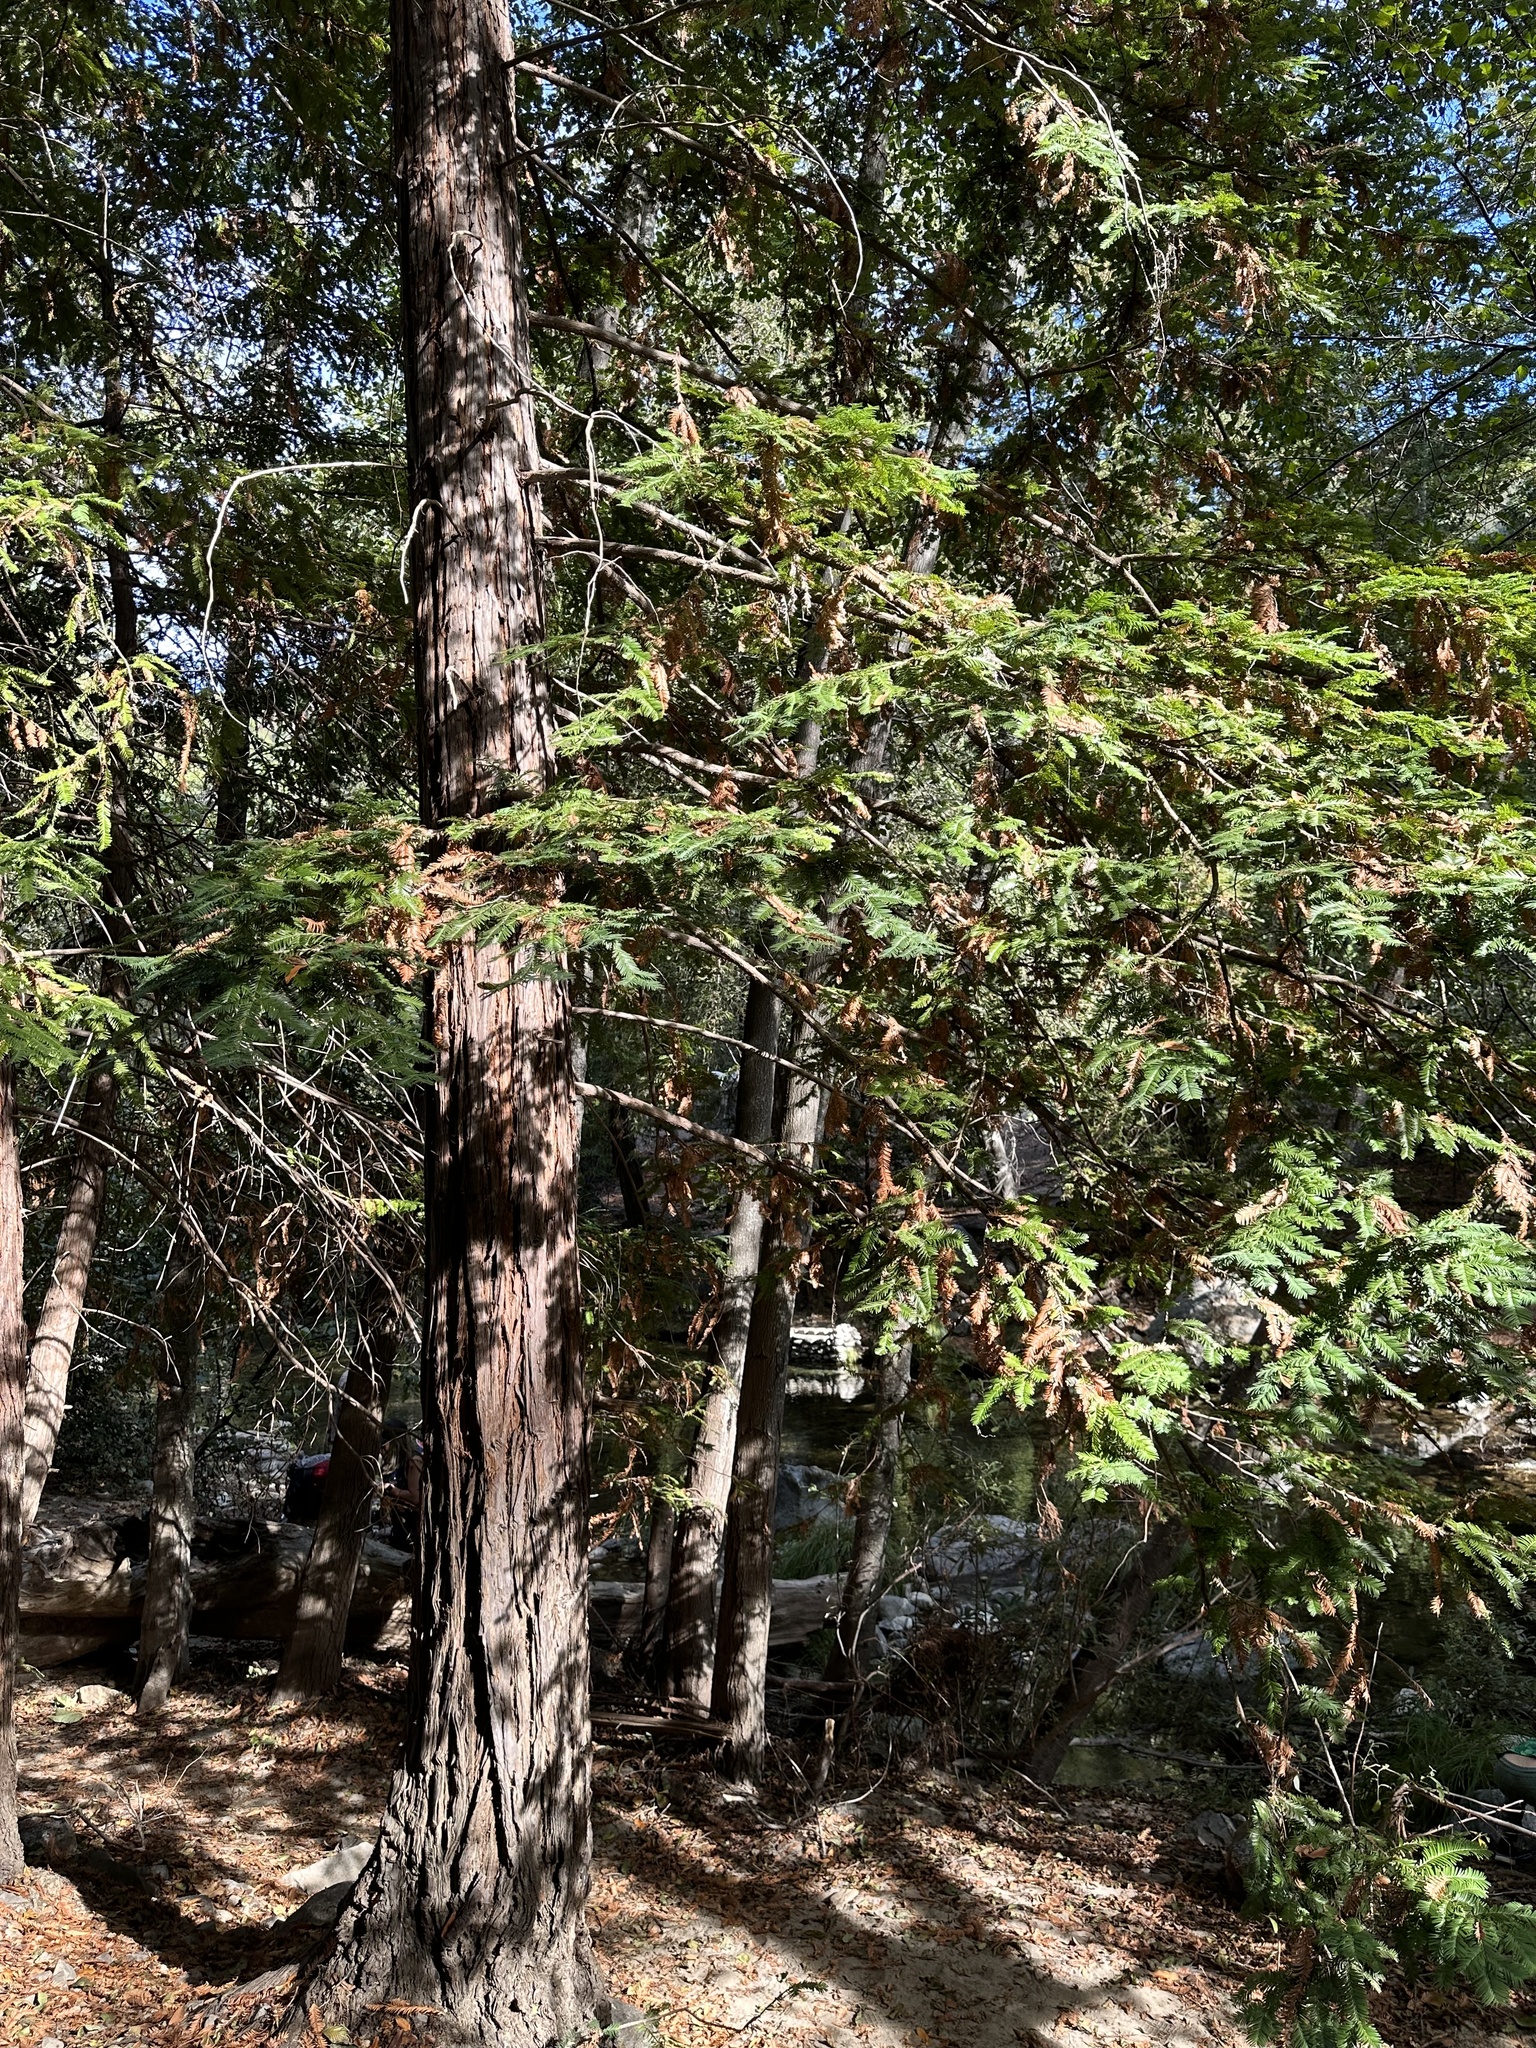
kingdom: Plantae
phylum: Tracheophyta
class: Pinopsida
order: Pinales
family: Cupressaceae
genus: Sequoia
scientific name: Sequoia sempervirens
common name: Coast redwood
